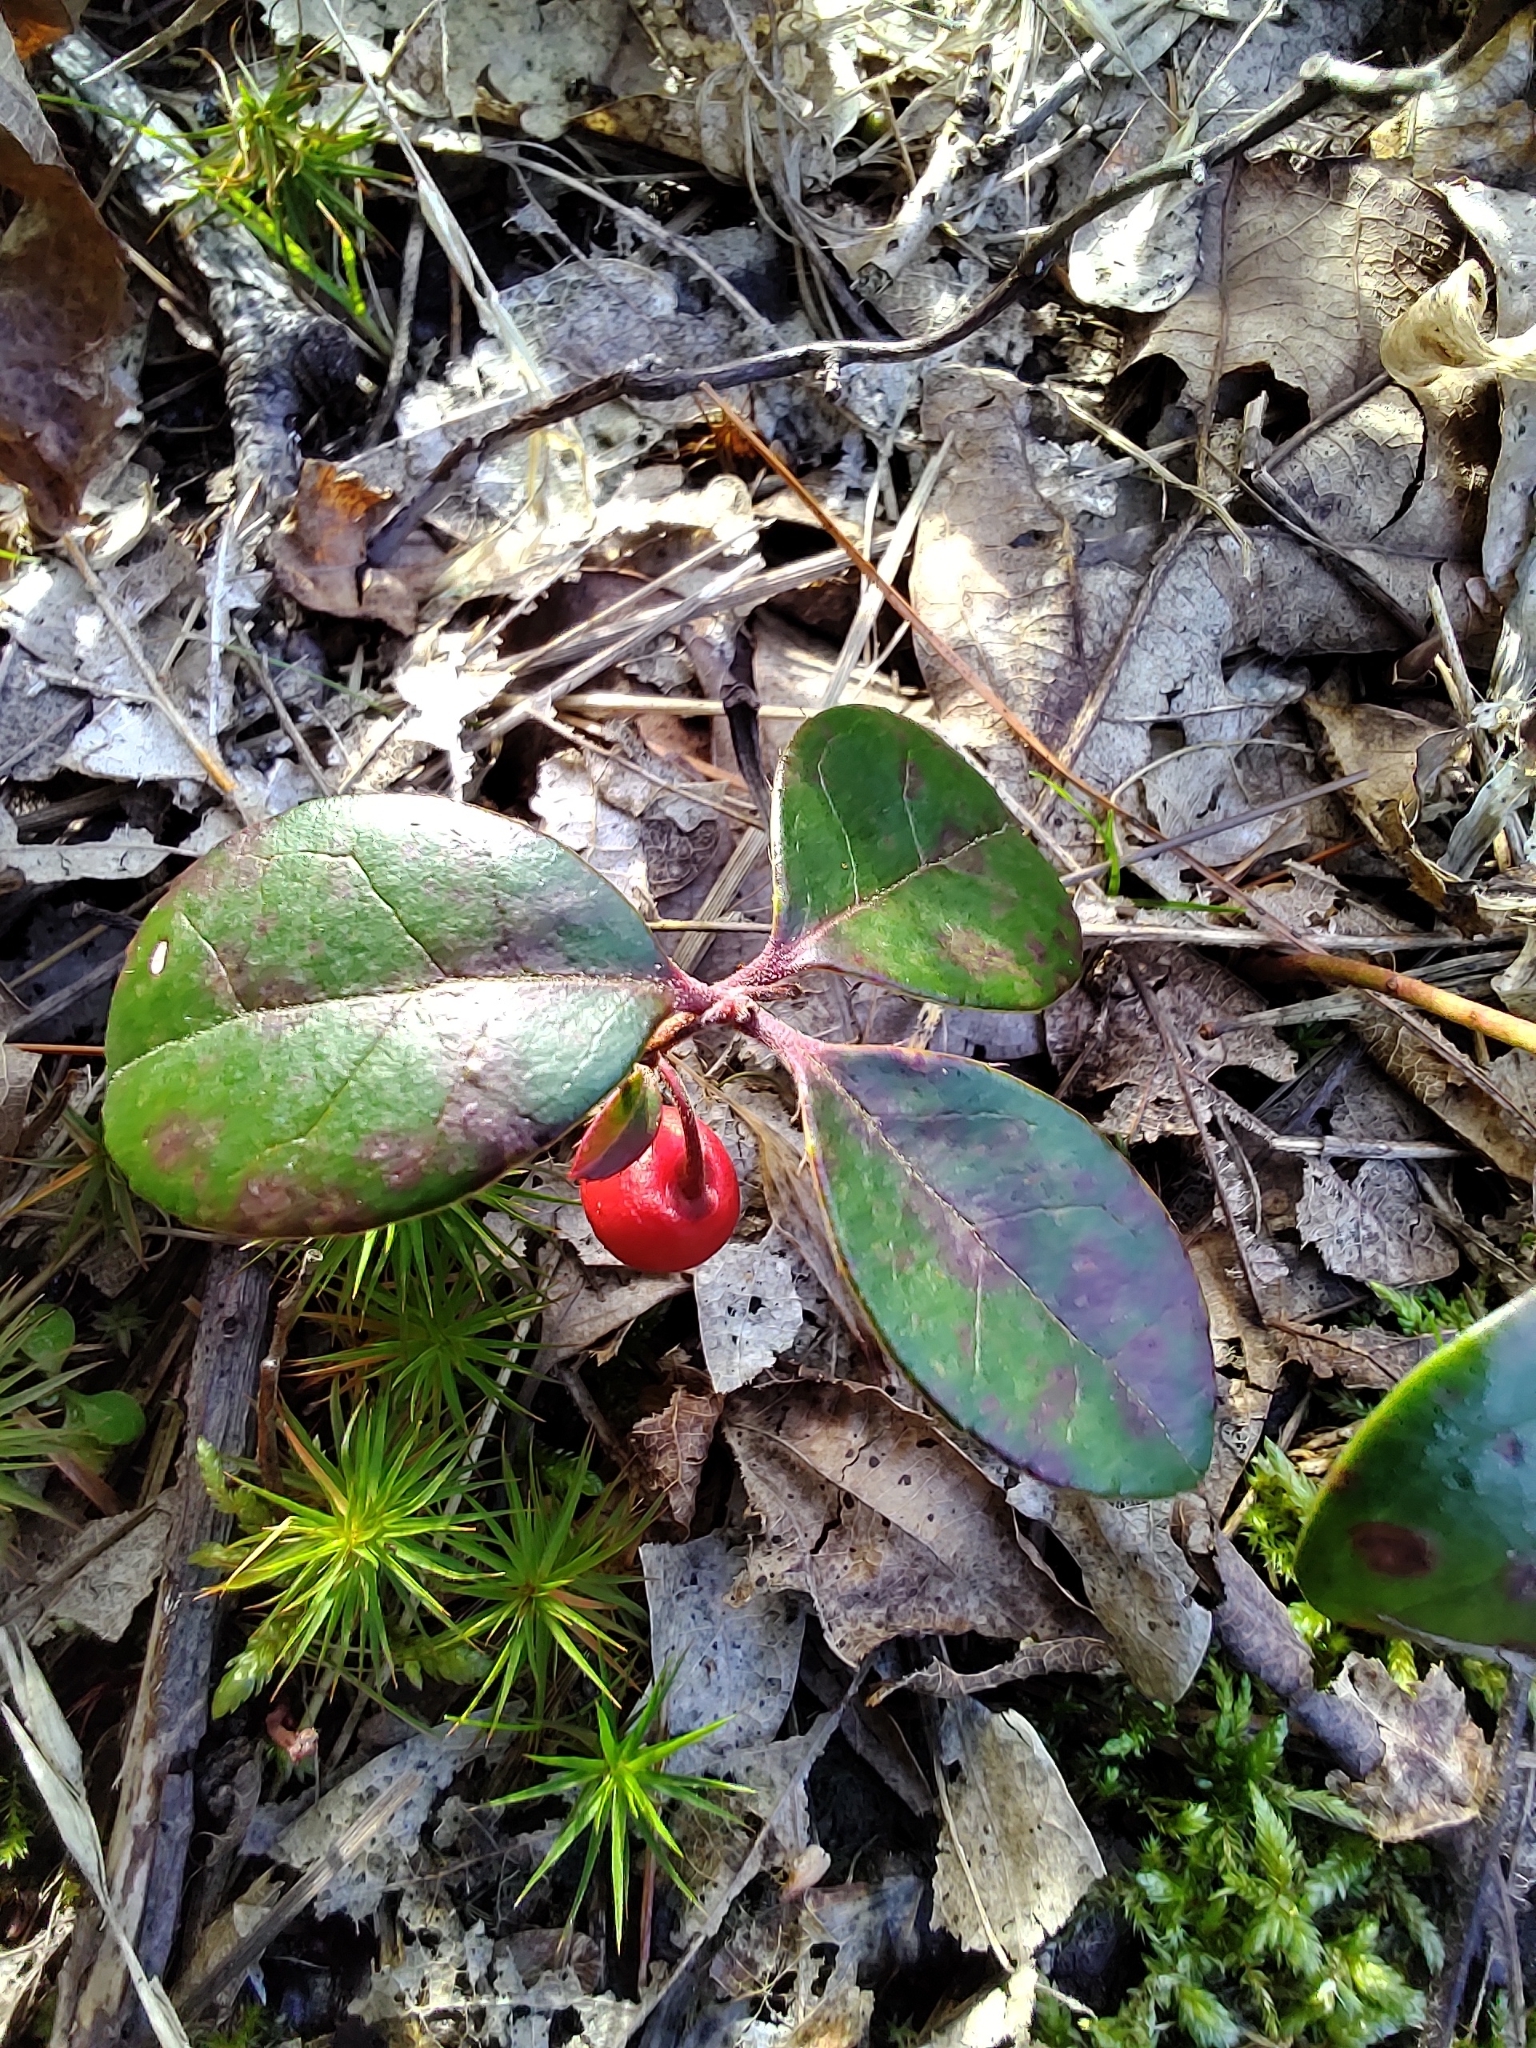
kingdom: Plantae
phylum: Tracheophyta
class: Magnoliopsida
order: Ericales
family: Ericaceae
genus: Gaultheria
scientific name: Gaultheria procumbens
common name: Checkerberry
